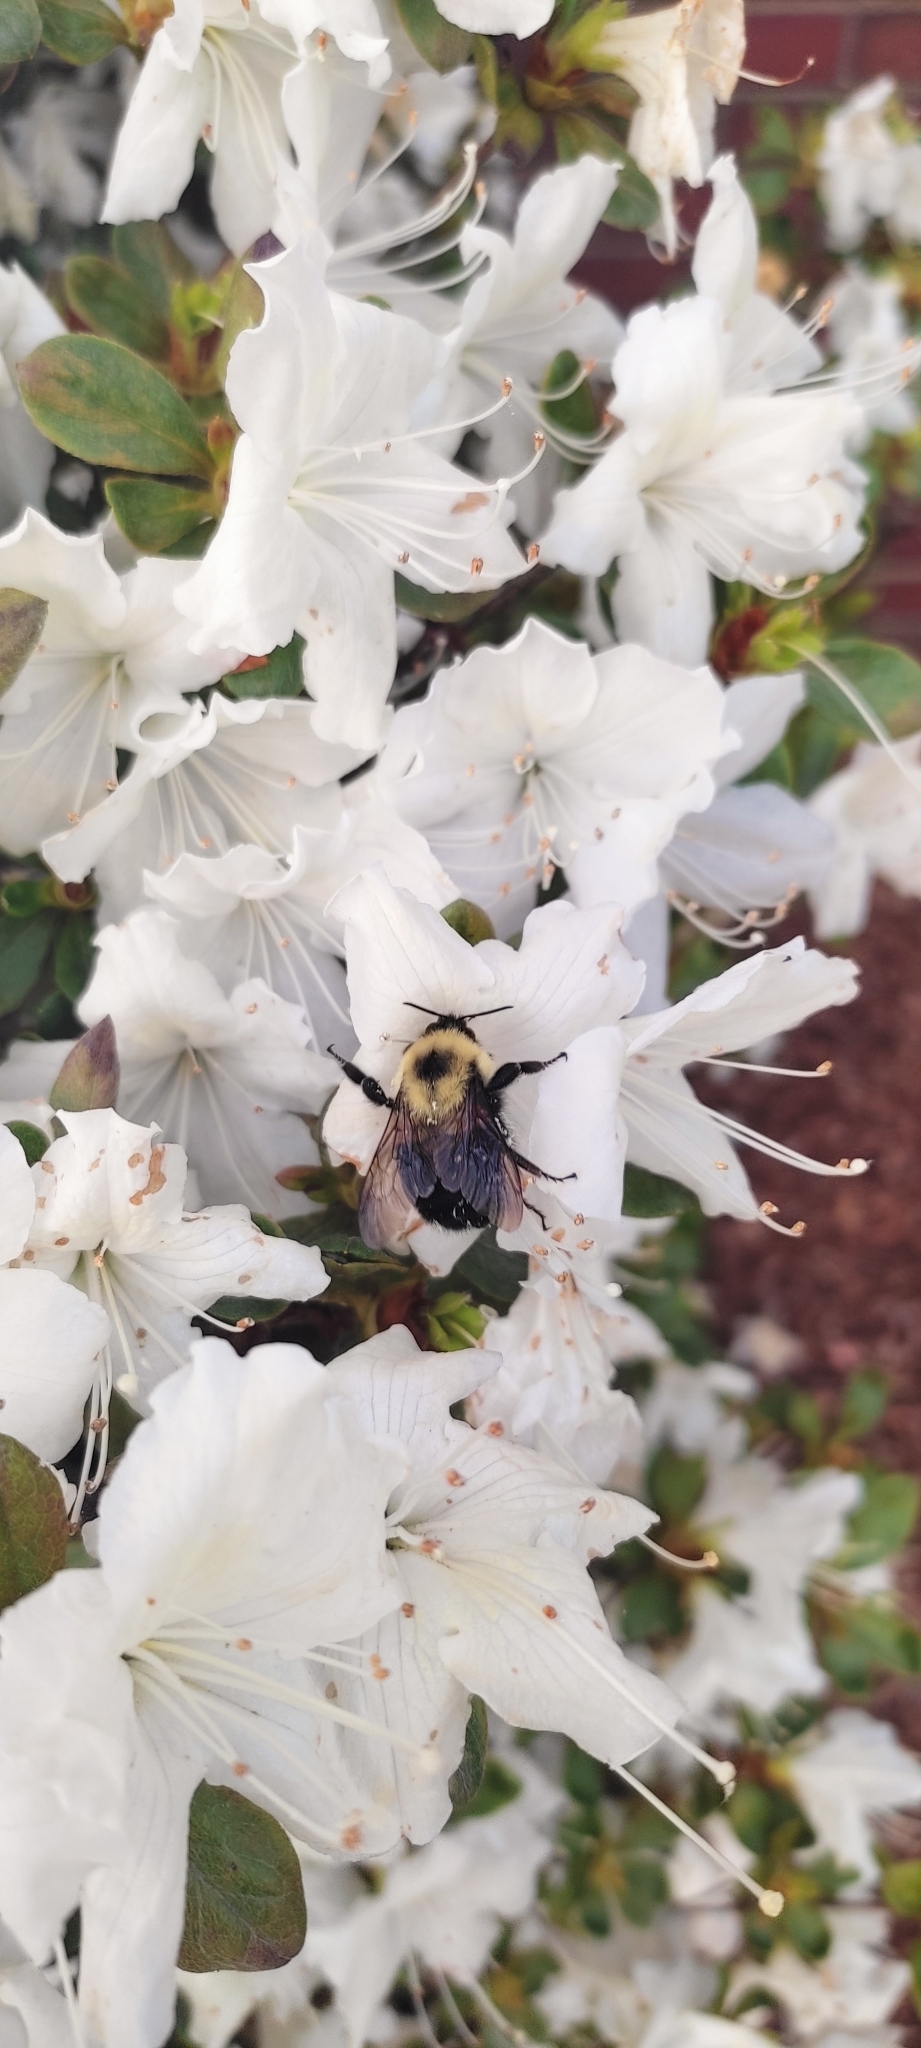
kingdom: Animalia
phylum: Arthropoda
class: Insecta
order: Hymenoptera
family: Apidae
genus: Bombus
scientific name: Bombus bimaculatus
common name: Two-spotted bumble bee
